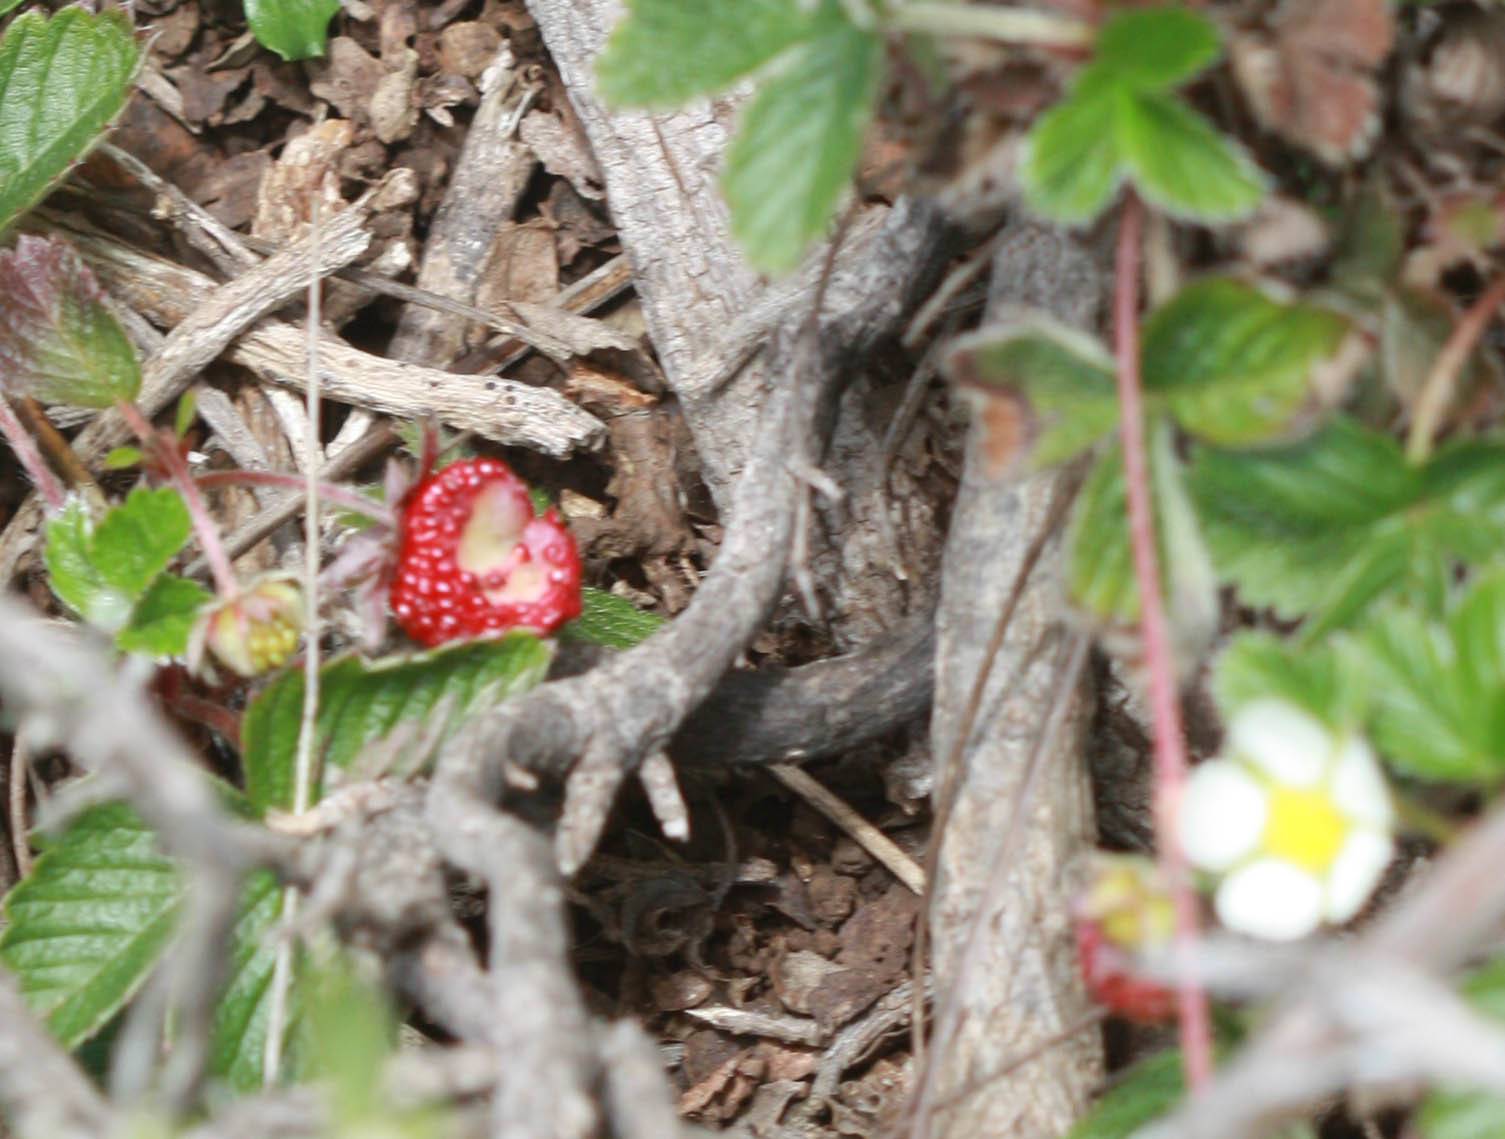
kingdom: Plantae
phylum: Tracheophyta
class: Magnoliopsida
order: Rosales
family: Rosaceae
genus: Fragaria
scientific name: Fragaria chiloensis
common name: Beach strawberry
